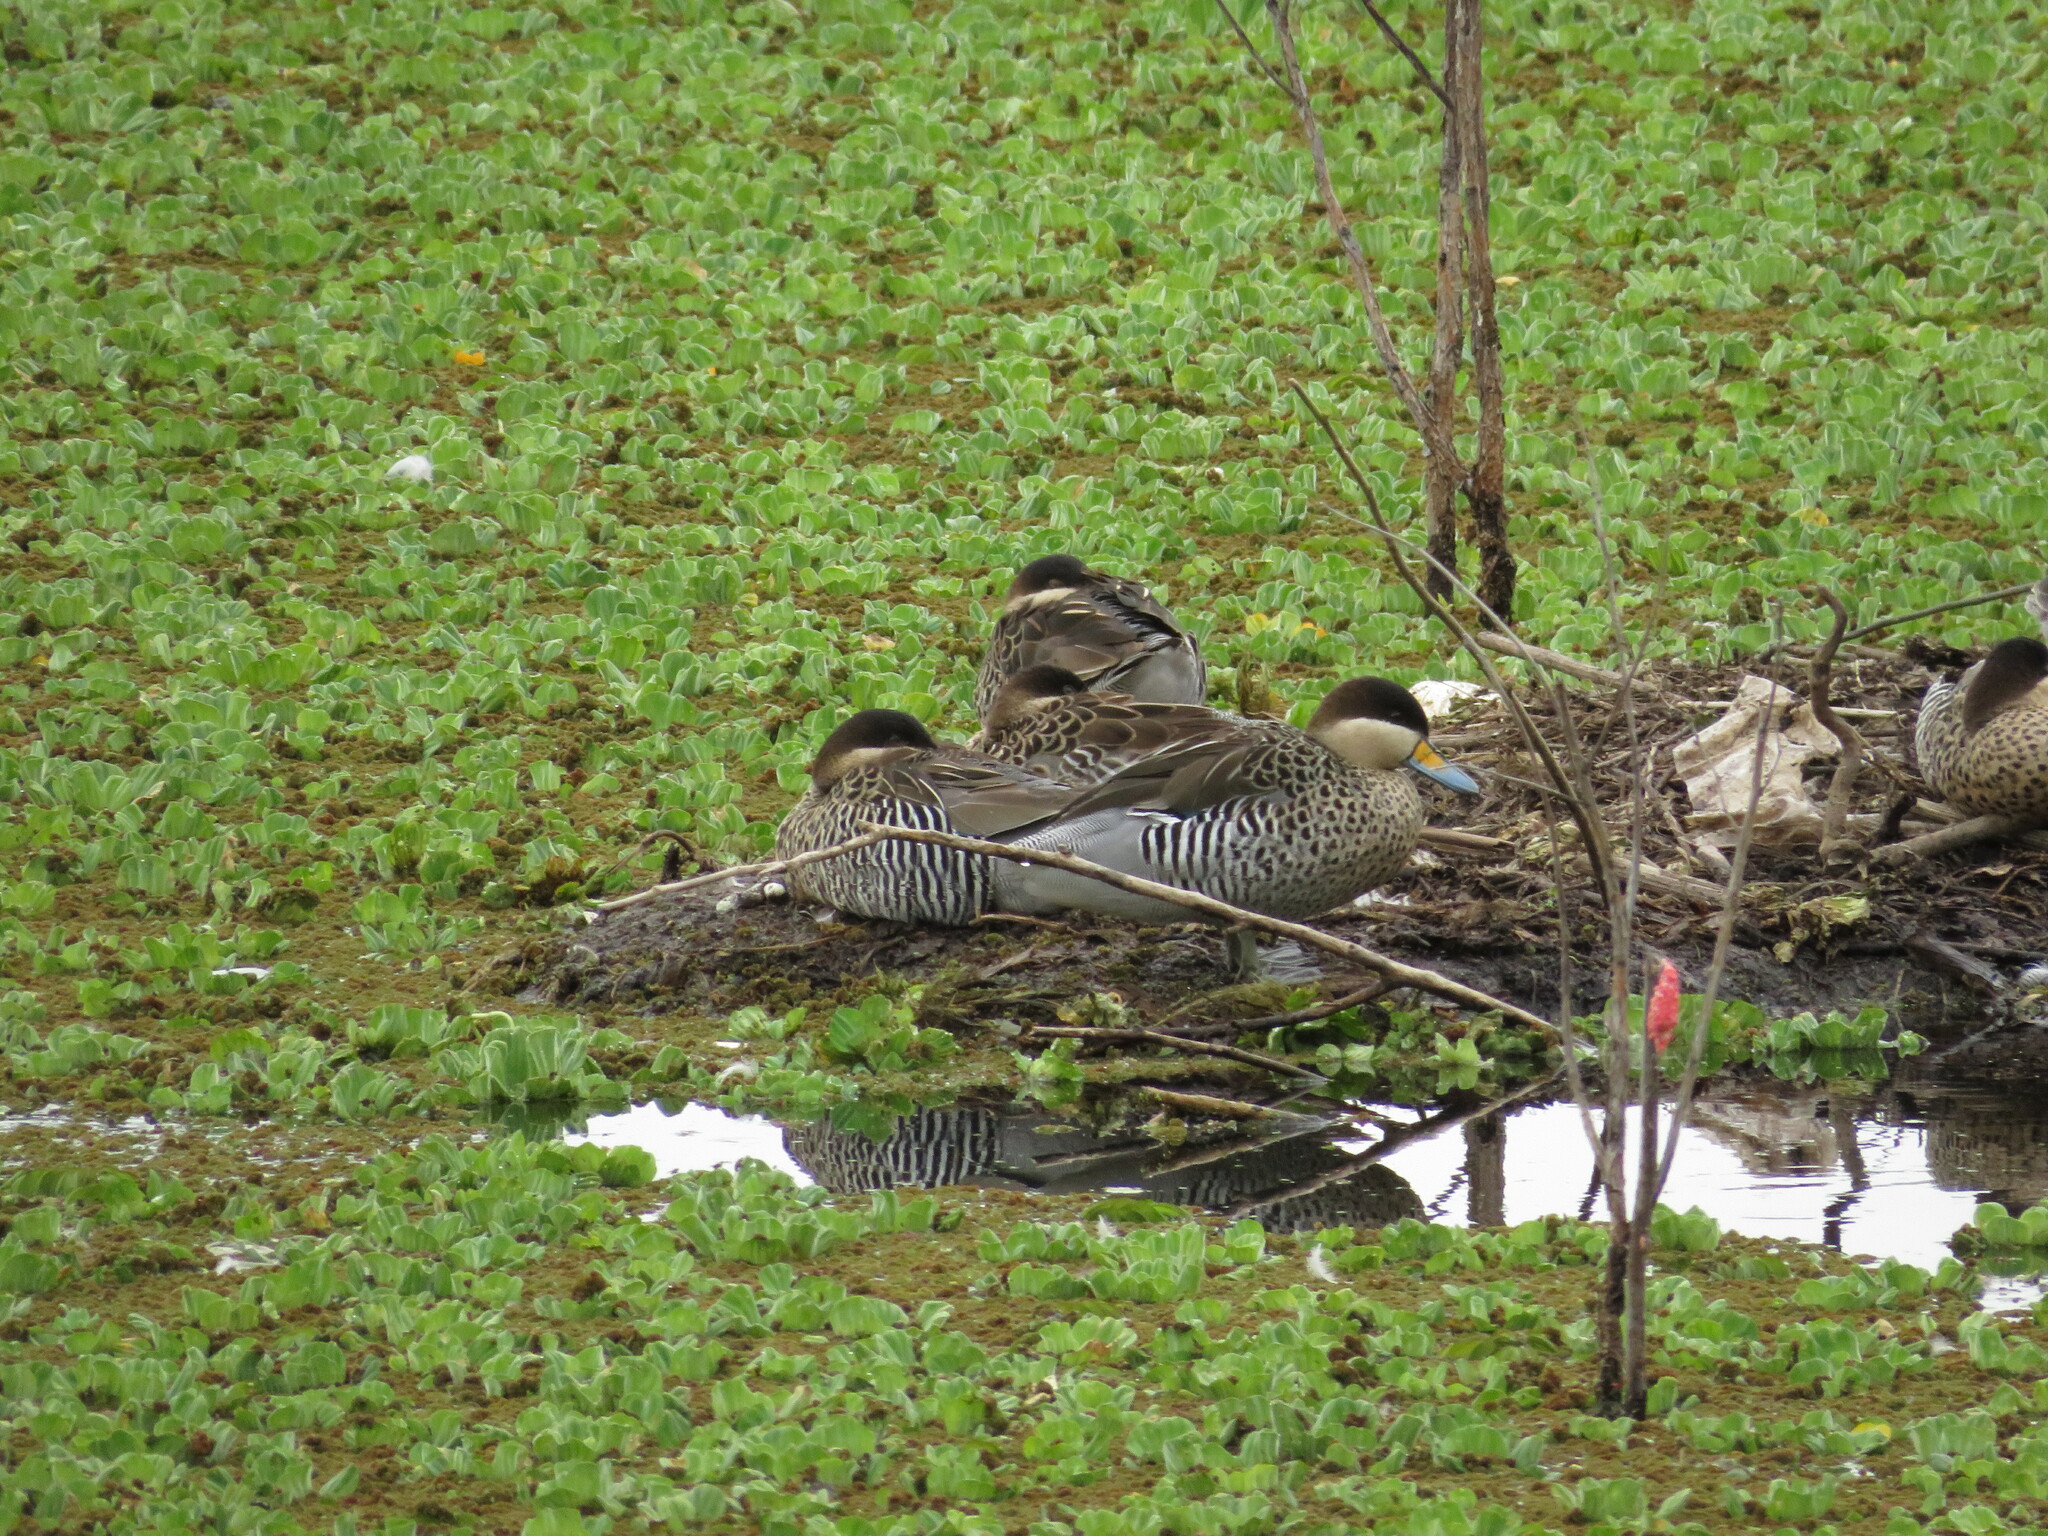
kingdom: Animalia
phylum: Chordata
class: Aves
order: Anseriformes
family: Anatidae
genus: Spatula
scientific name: Spatula versicolor
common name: Silver teal
